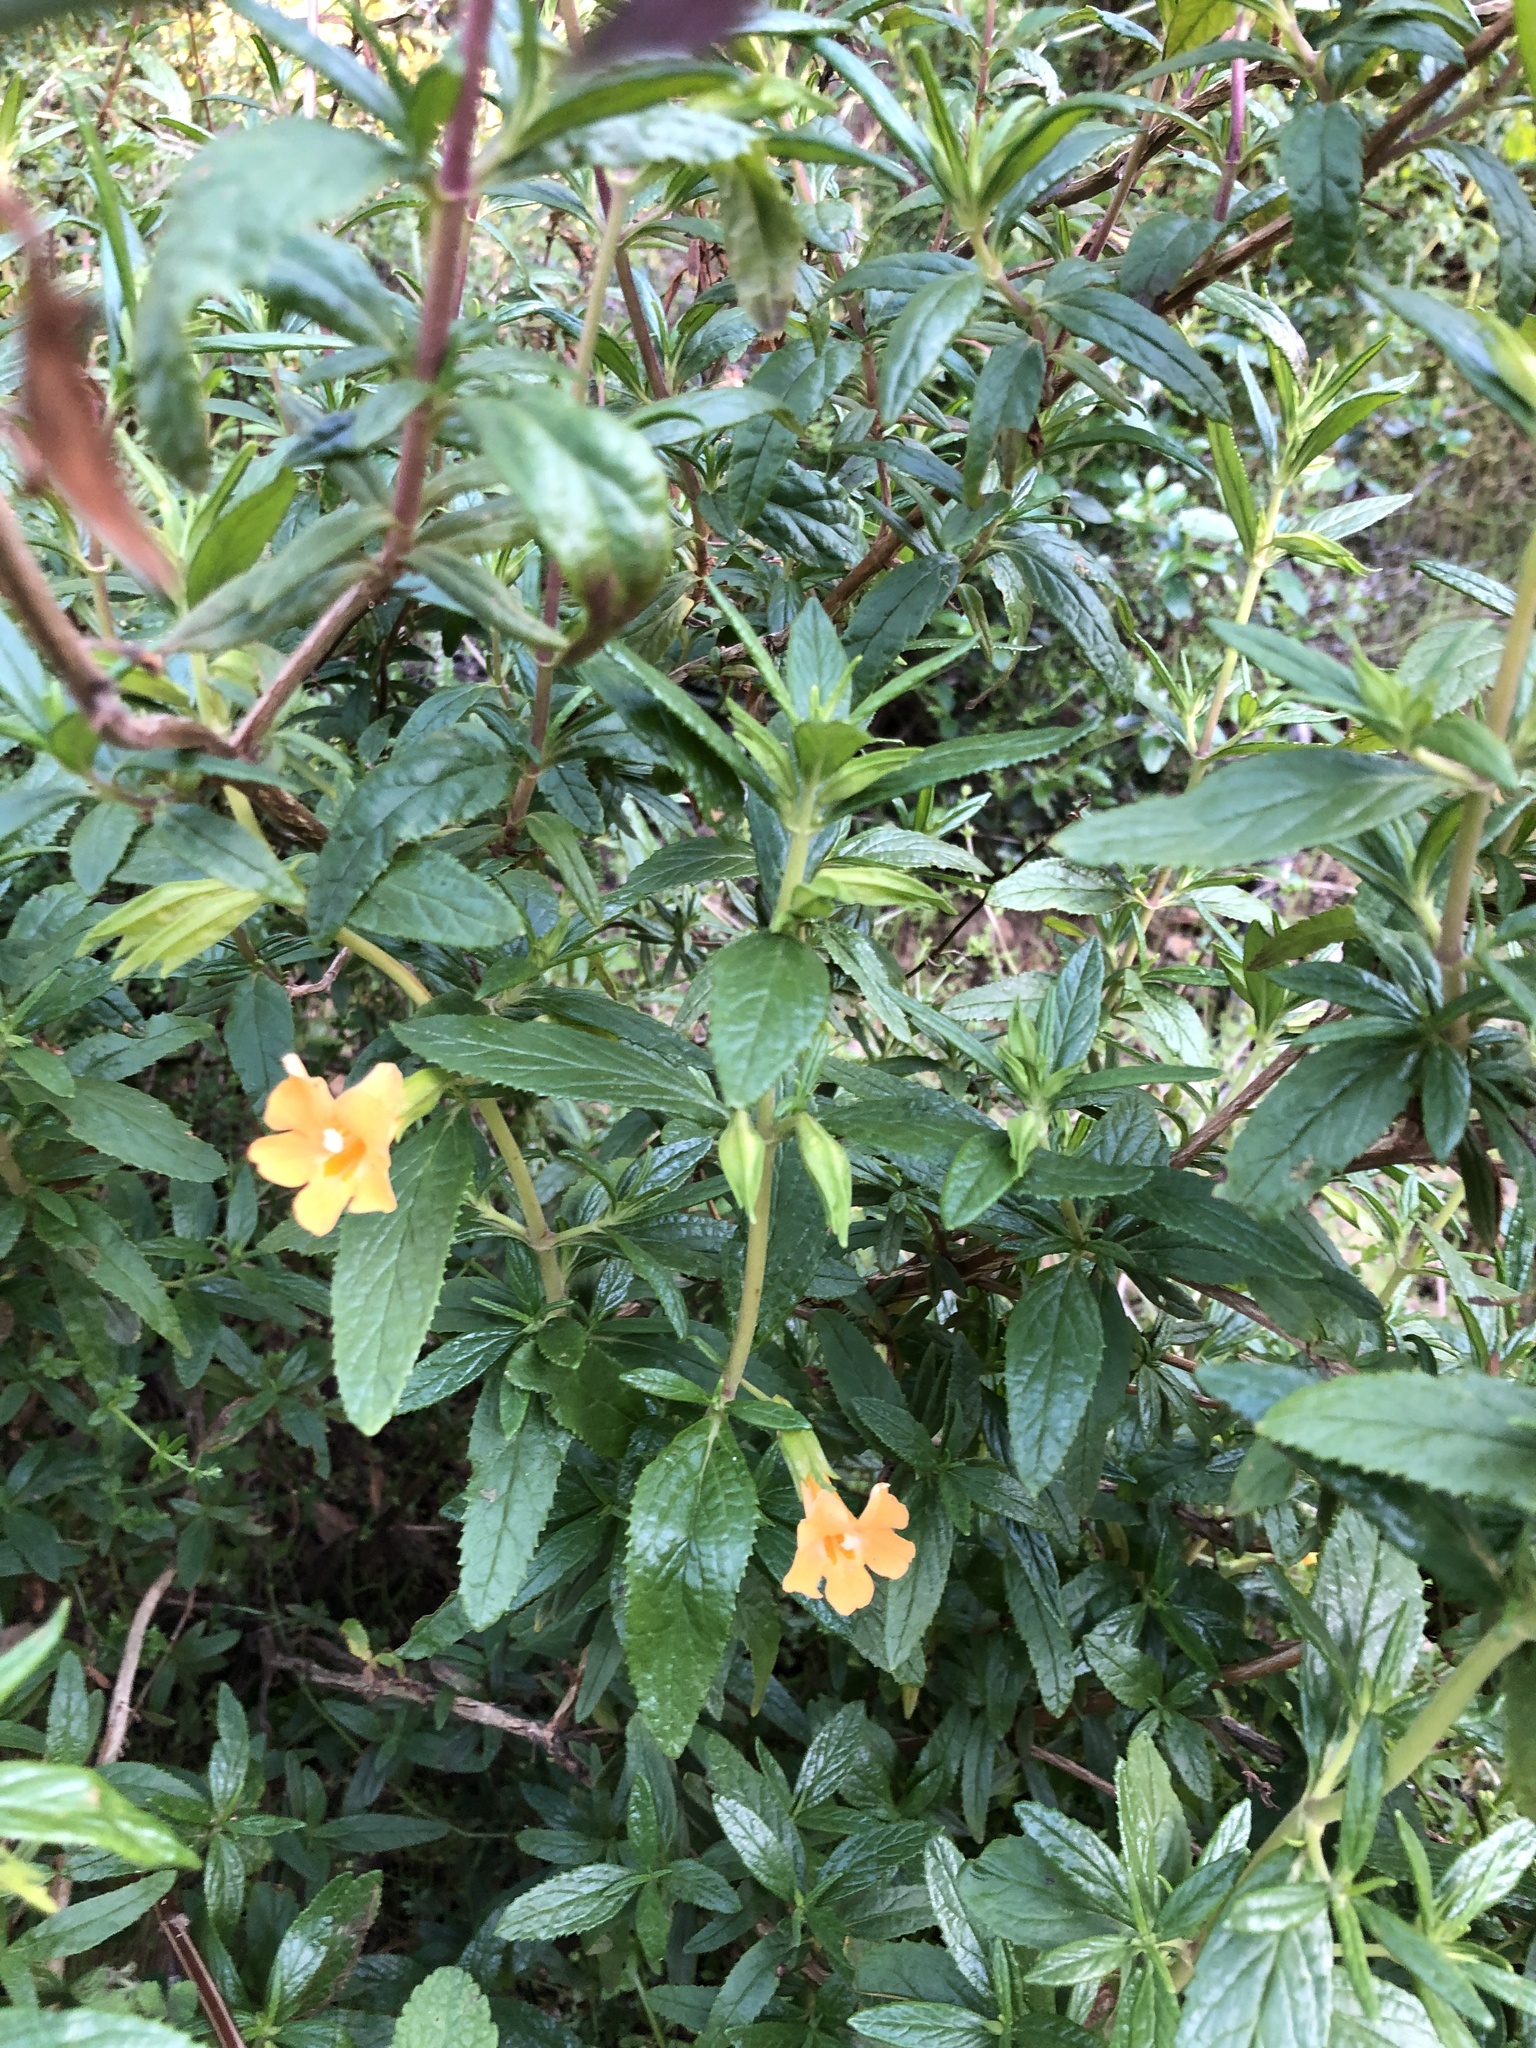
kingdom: Plantae
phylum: Tracheophyta
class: Magnoliopsida
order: Lamiales
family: Phrymaceae
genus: Diplacus
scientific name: Diplacus aurantiacus
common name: Bush monkey-flower
